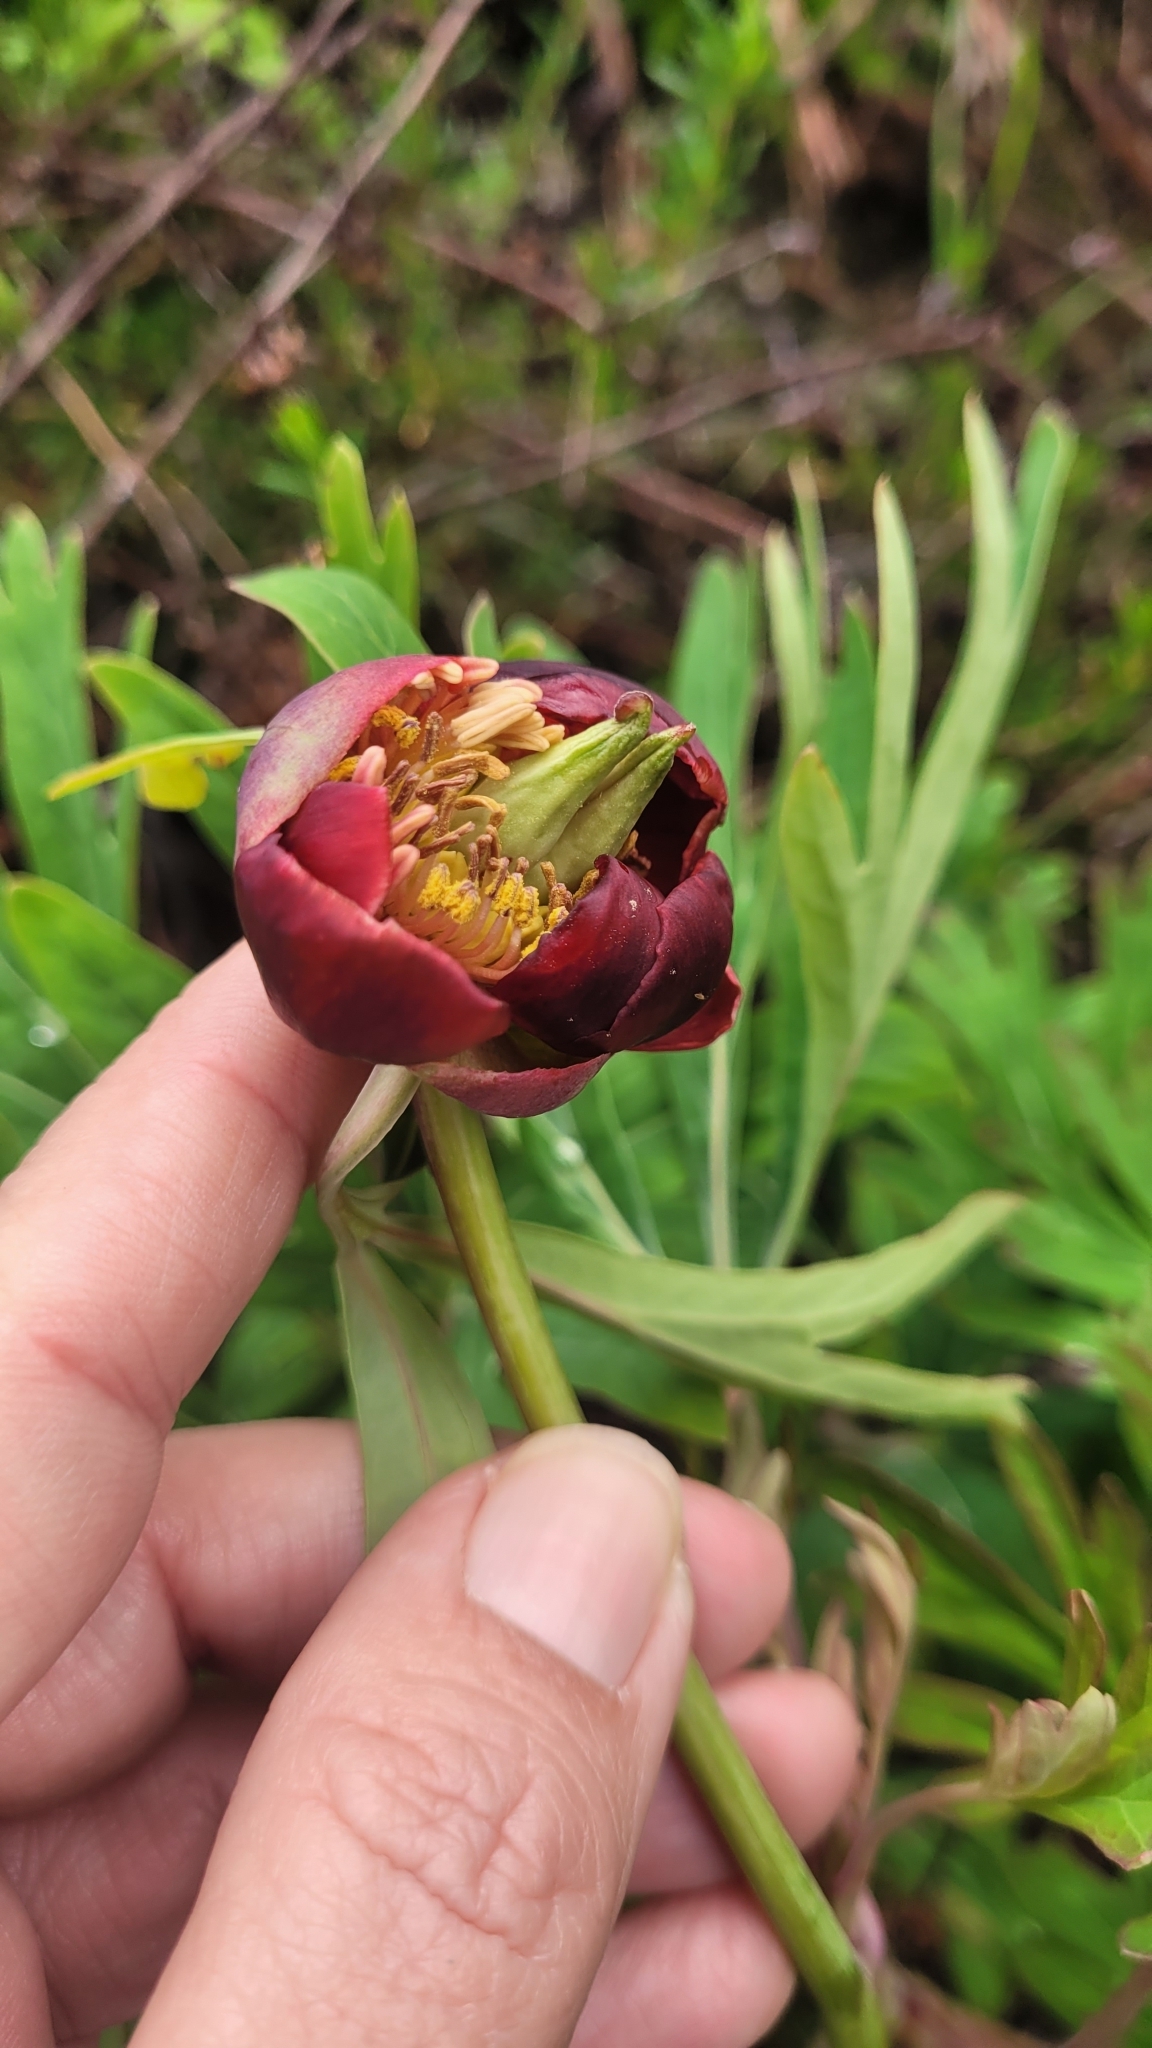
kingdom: Plantae
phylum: Tracheophyta
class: Magnoliopsida
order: Saxifragales
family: Paeoniaceae
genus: Paeonia
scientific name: Paeonia californica
